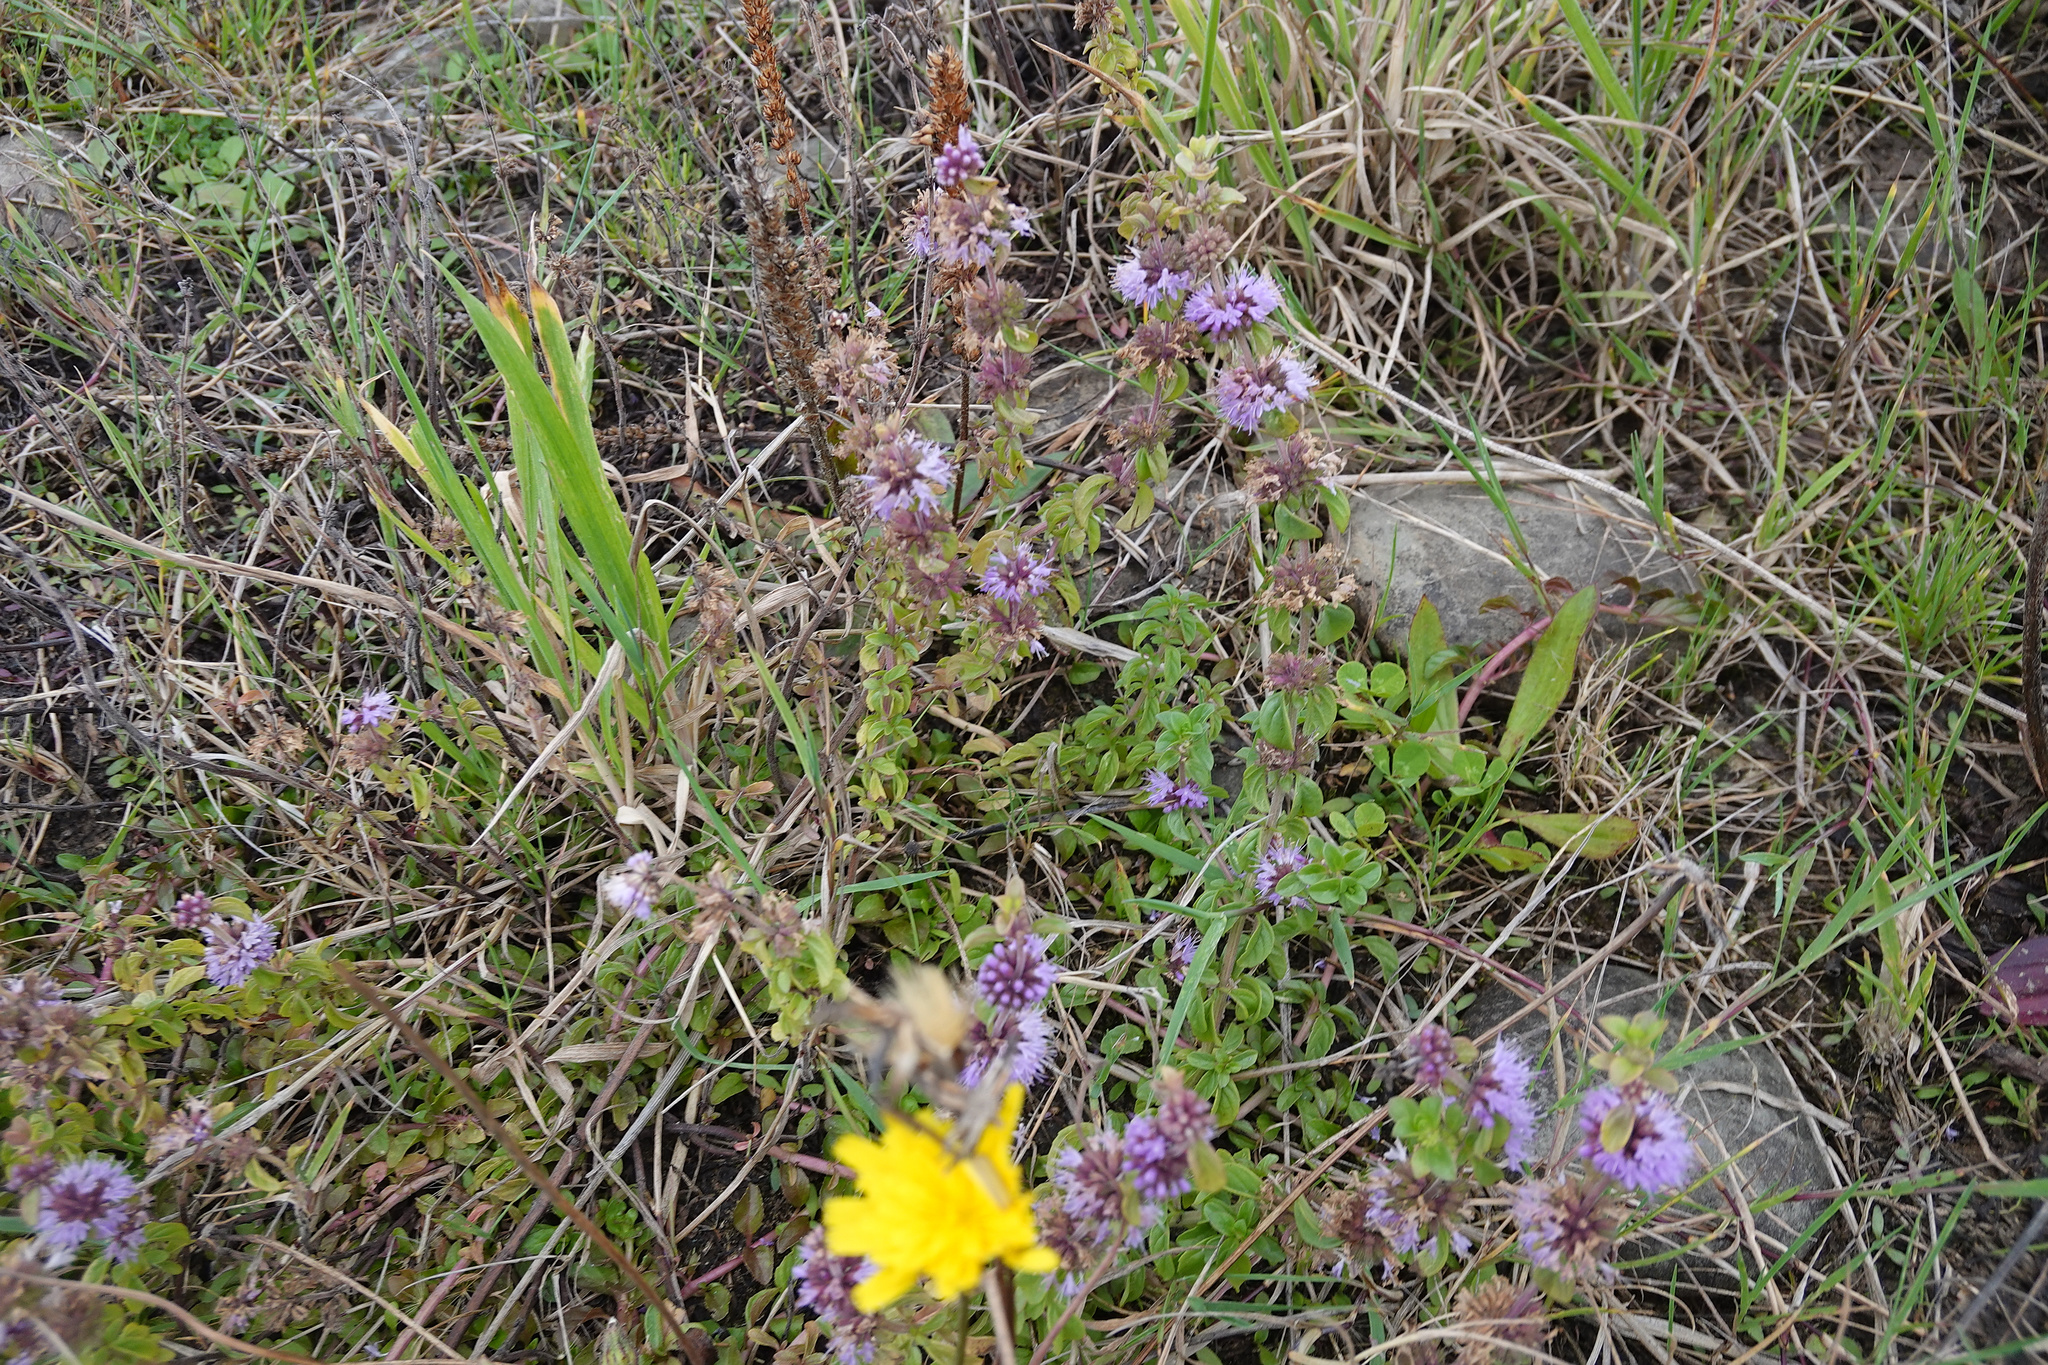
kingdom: Plantae
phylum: Tracheophyta
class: Magnoliopsida
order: Lamiales
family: Lamiaceae
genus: Mentha
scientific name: Mentha pulegium
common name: Pennyroyal
